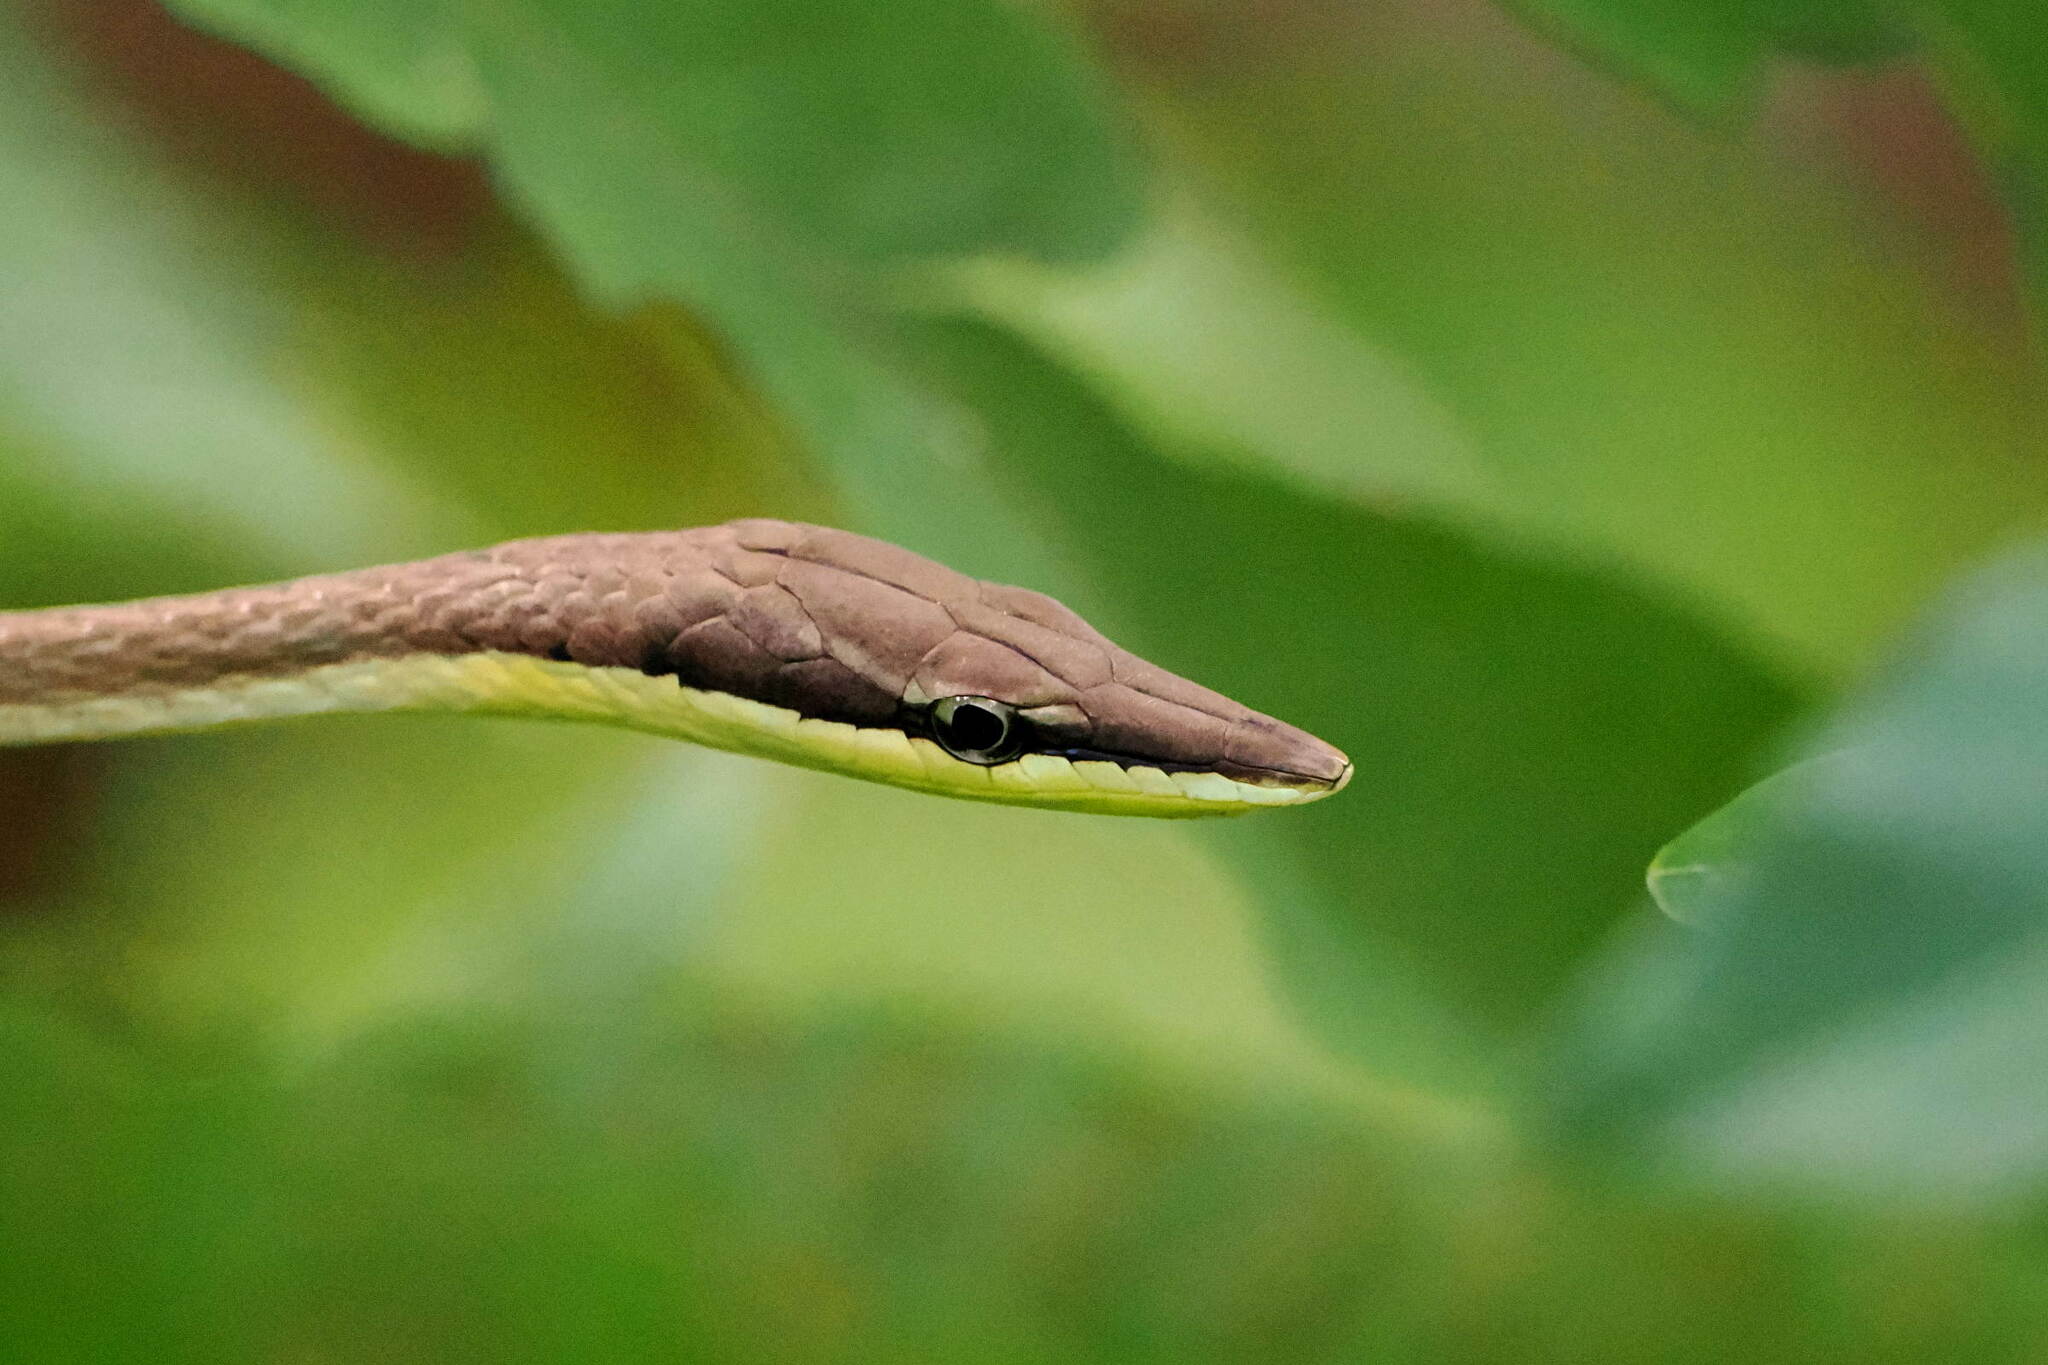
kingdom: Animalia
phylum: Chordata
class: Squamata
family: Colubridae
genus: Oxybelis
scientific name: Oxybelis rutherfordi
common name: Rutherford’s vine snake
